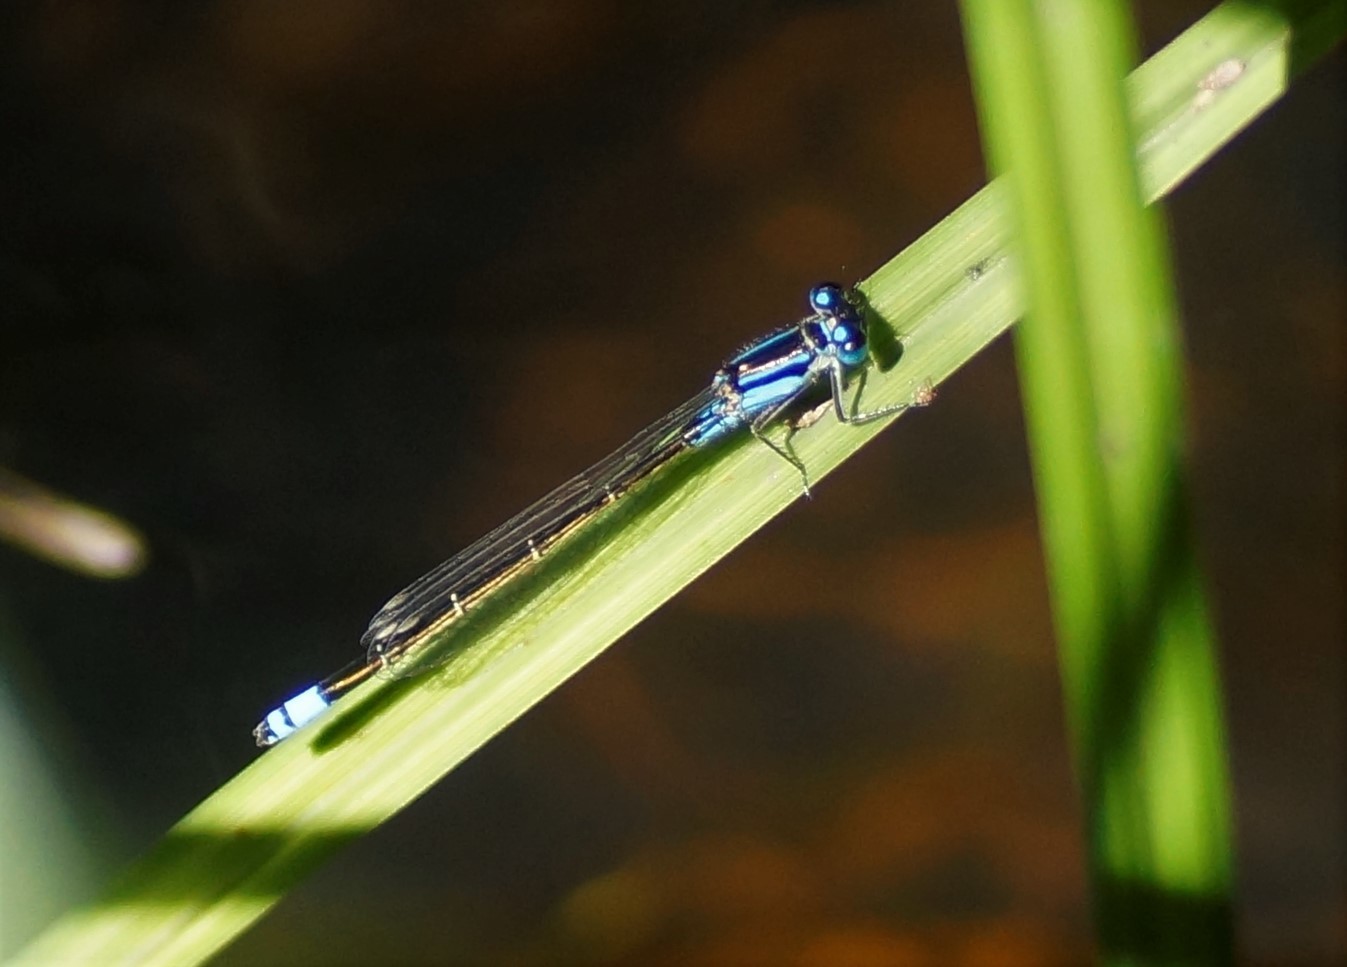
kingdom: Animalia
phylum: Arthropoda
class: Insecta
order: Odonata
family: Coenagrionidae
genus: Ischnura
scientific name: Ischnura heterosticta
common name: Common bluetail
